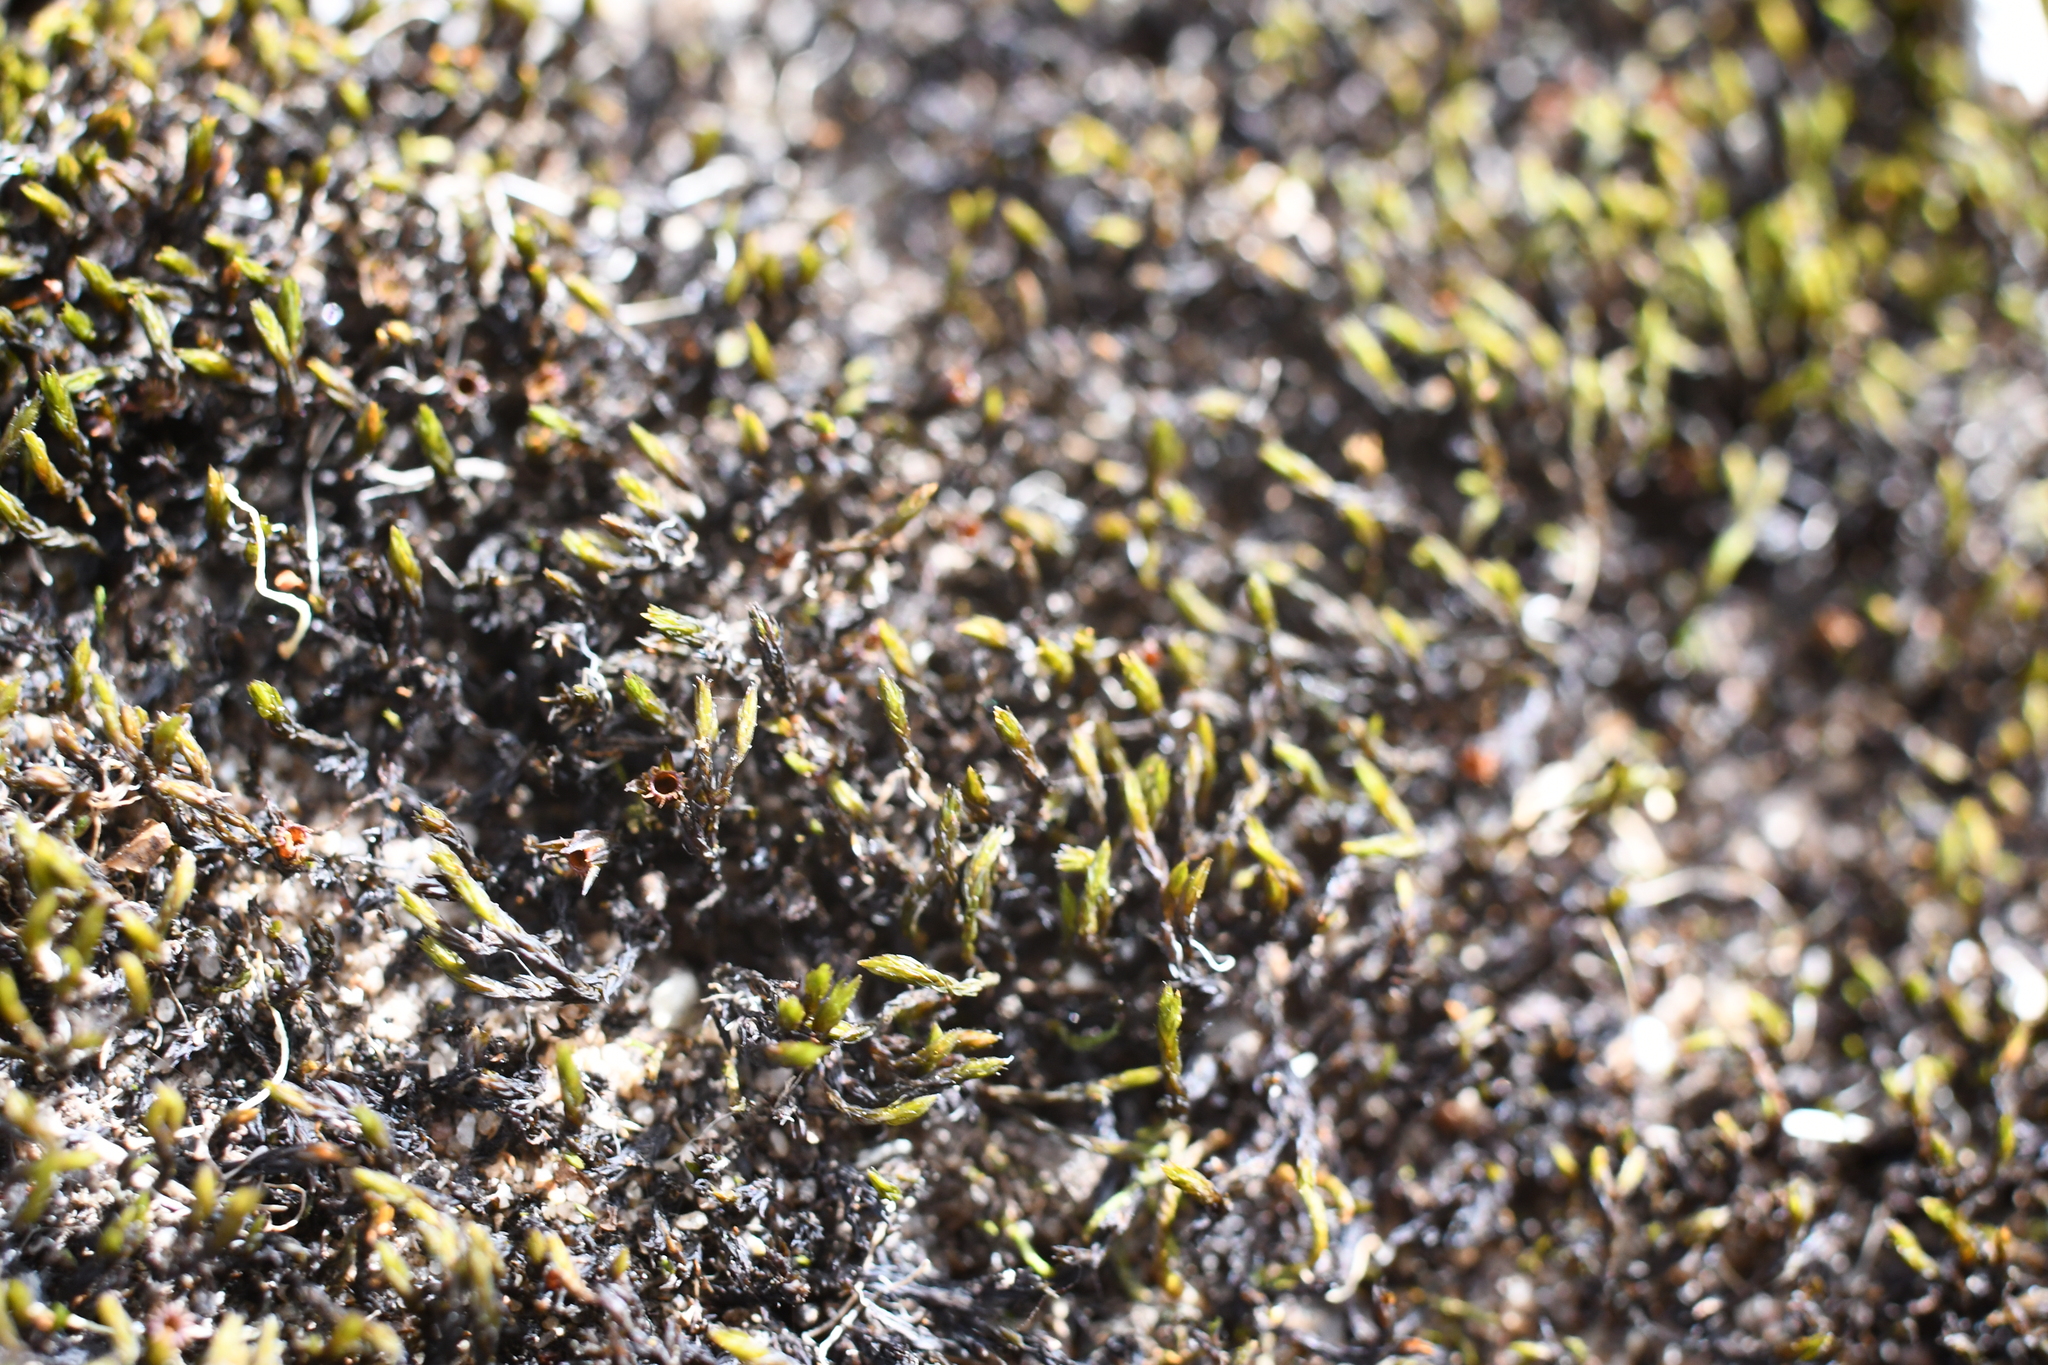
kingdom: Plantae
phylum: Bryophyta
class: Bryopsida
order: Grimmiales
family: Grimmiaceae
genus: Schistidium
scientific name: Schistidium apocarpum
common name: Radiate bloom moss
